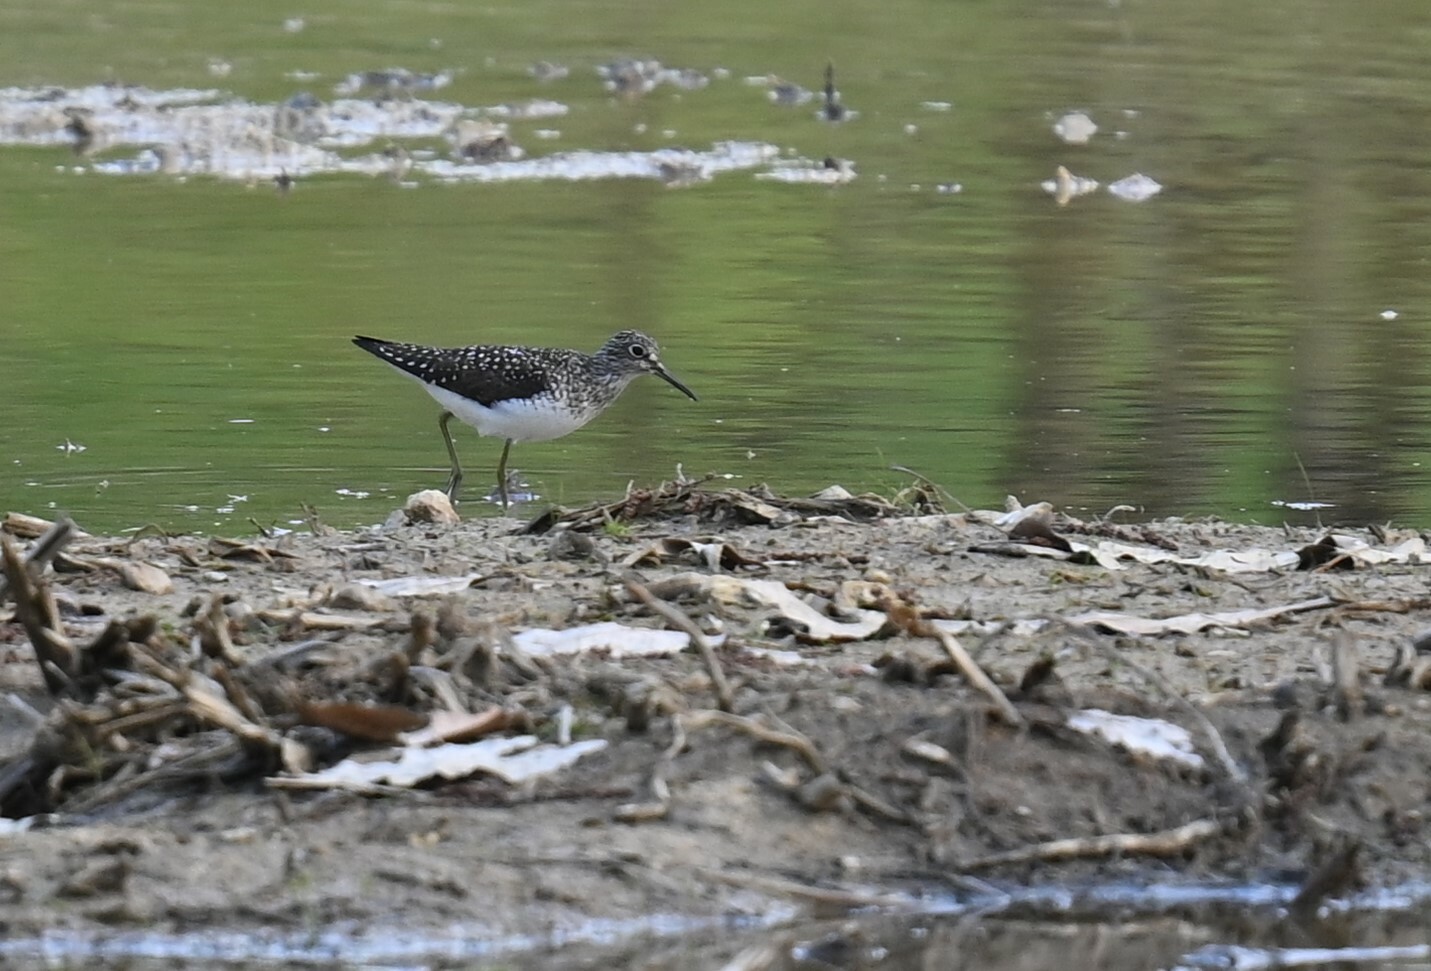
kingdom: Animalia
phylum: Chordata
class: Aves
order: Charadriiformes
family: Scolopacidae
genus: Tringa
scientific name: Tringa solitaria
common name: Solitary sandpiper
